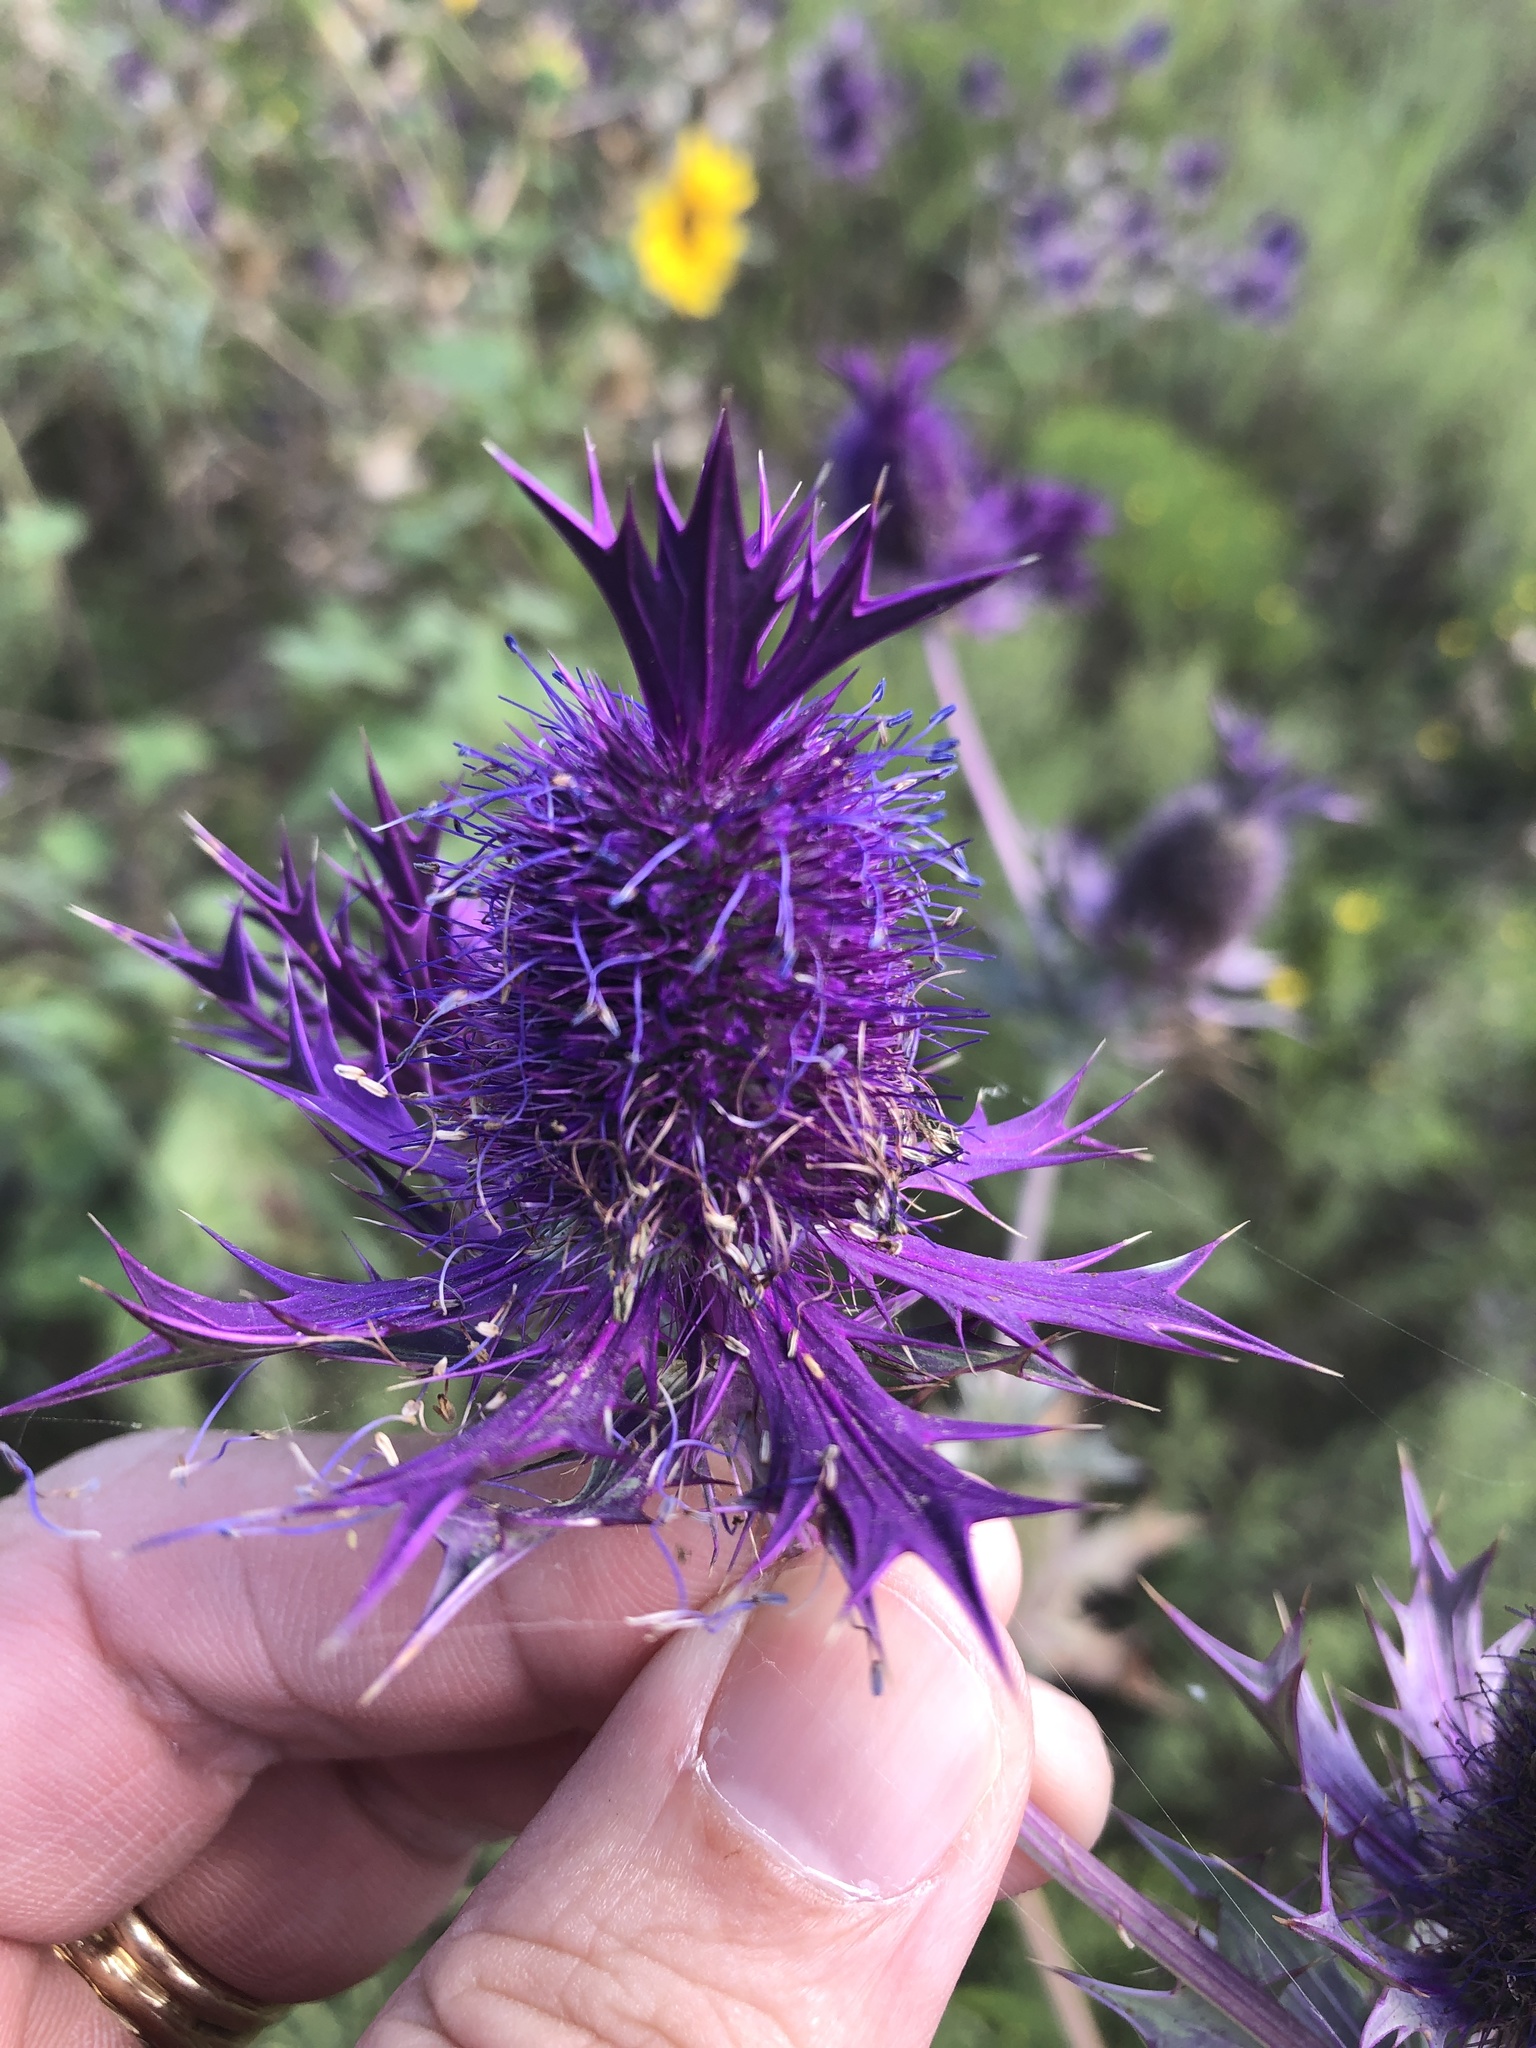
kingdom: Plantae
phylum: Tracheophyta
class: Magnoliopsida
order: Apiales
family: Apiaceae
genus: Eryngium
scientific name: Eryngium leavenworthii
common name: Leavenworth's eryngo
